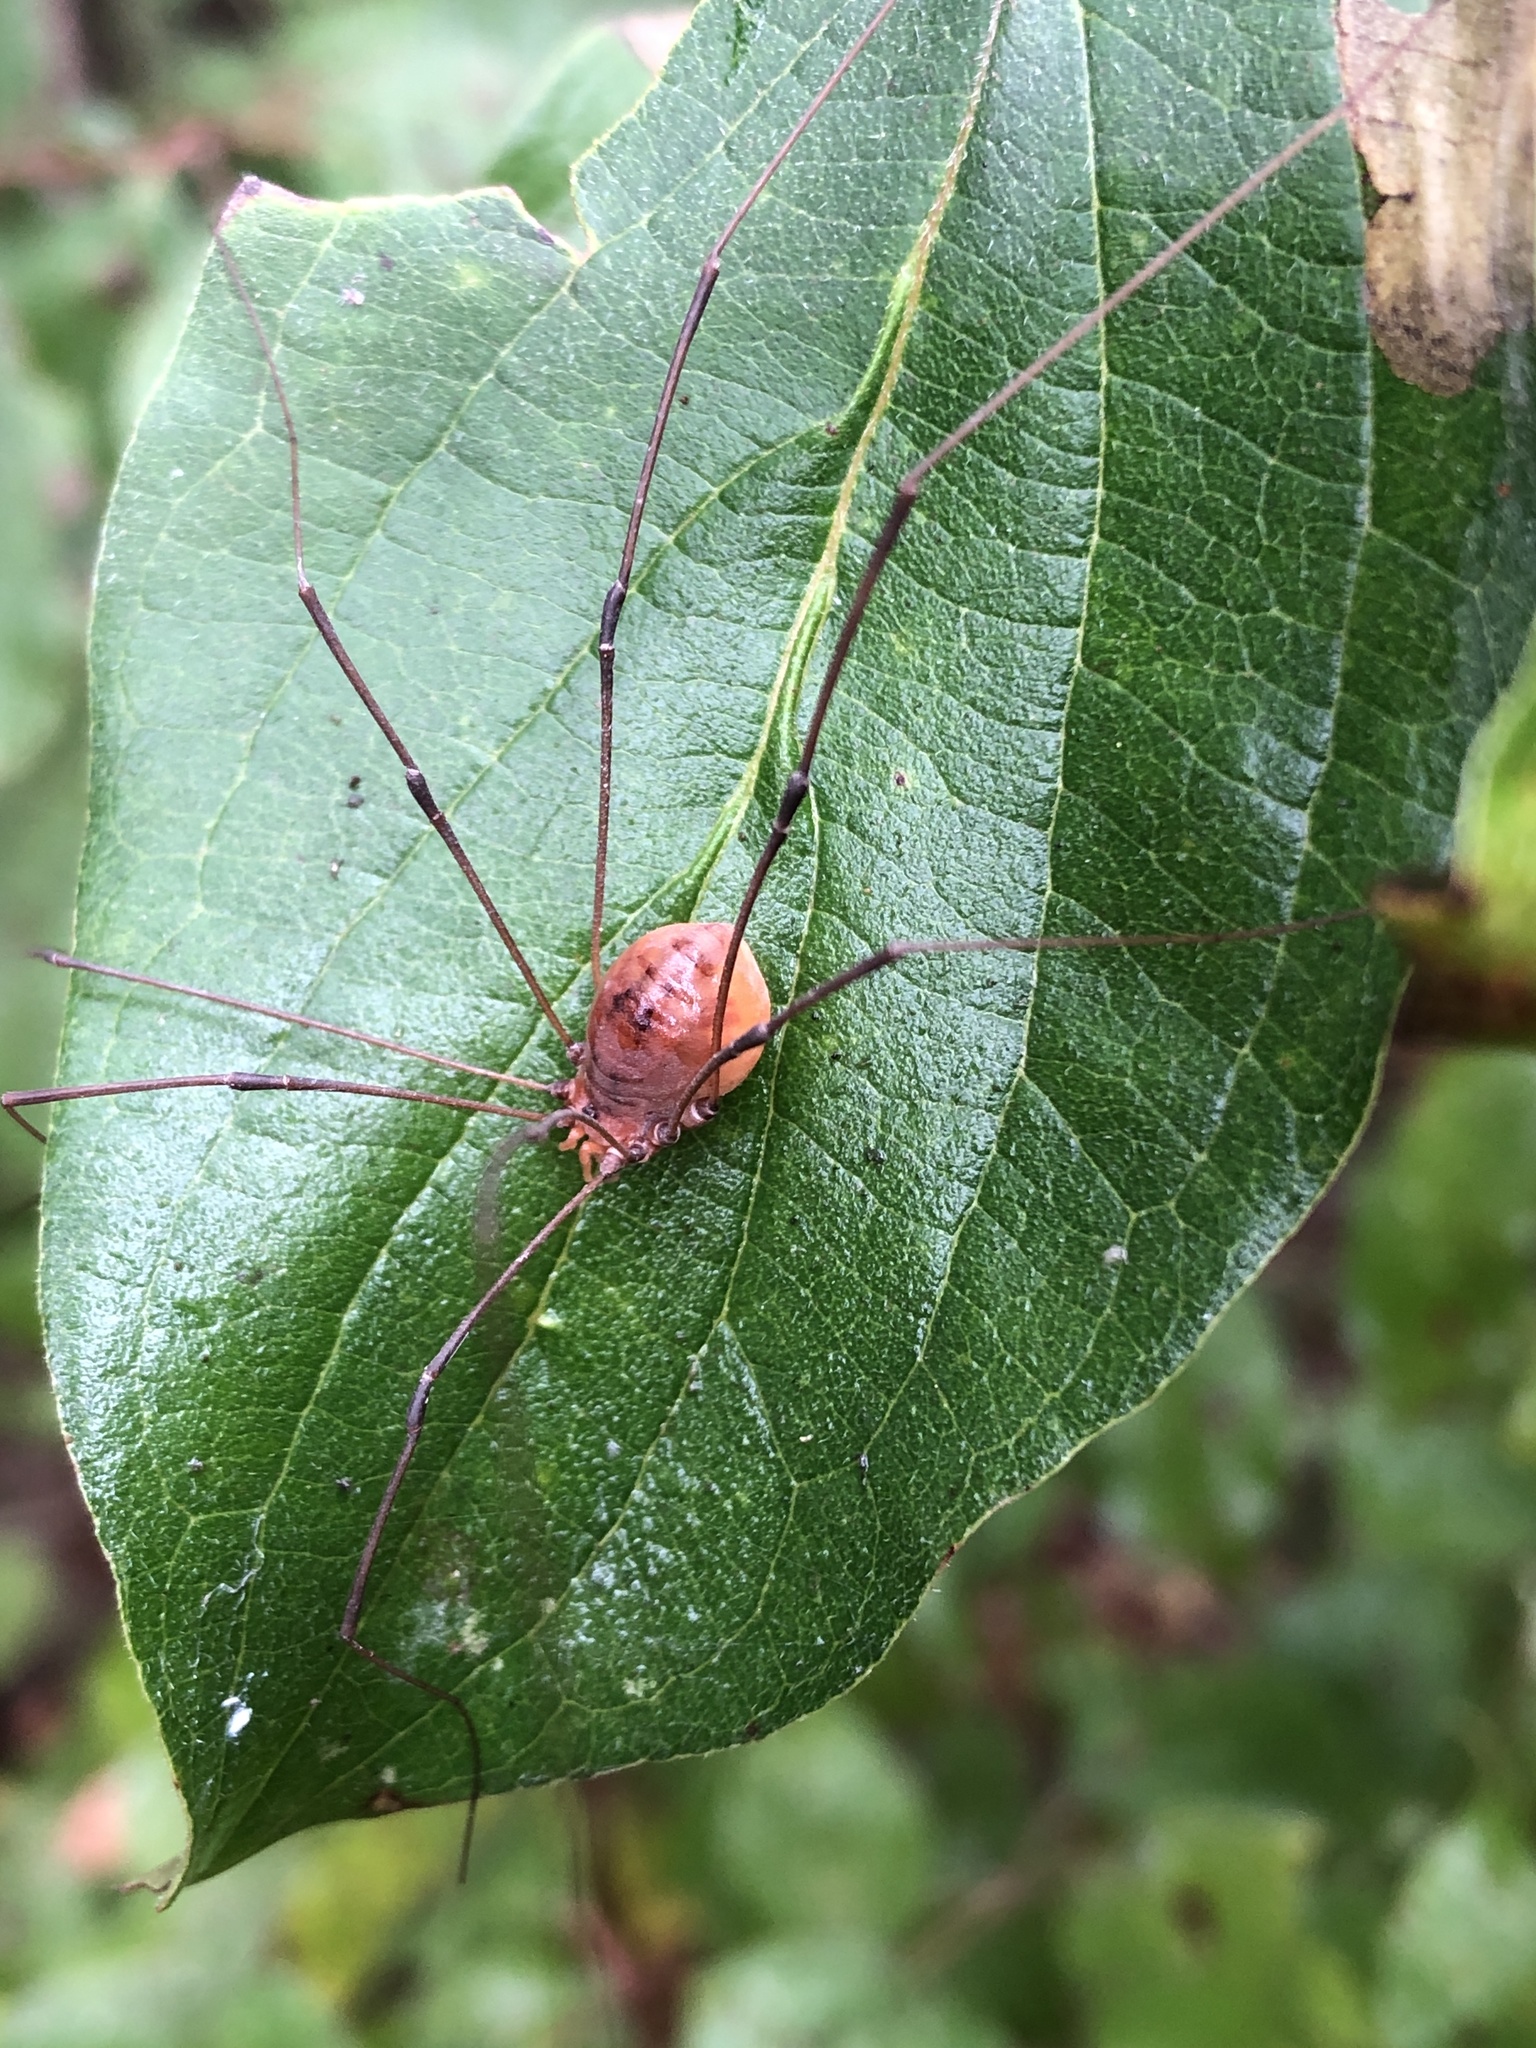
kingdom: Animalia
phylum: Arthropoda
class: Arachnida
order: Opiliones
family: Sclerosomatidae
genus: Leiobunum
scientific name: Leiobunum vittatum
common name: Eastern harvestman
